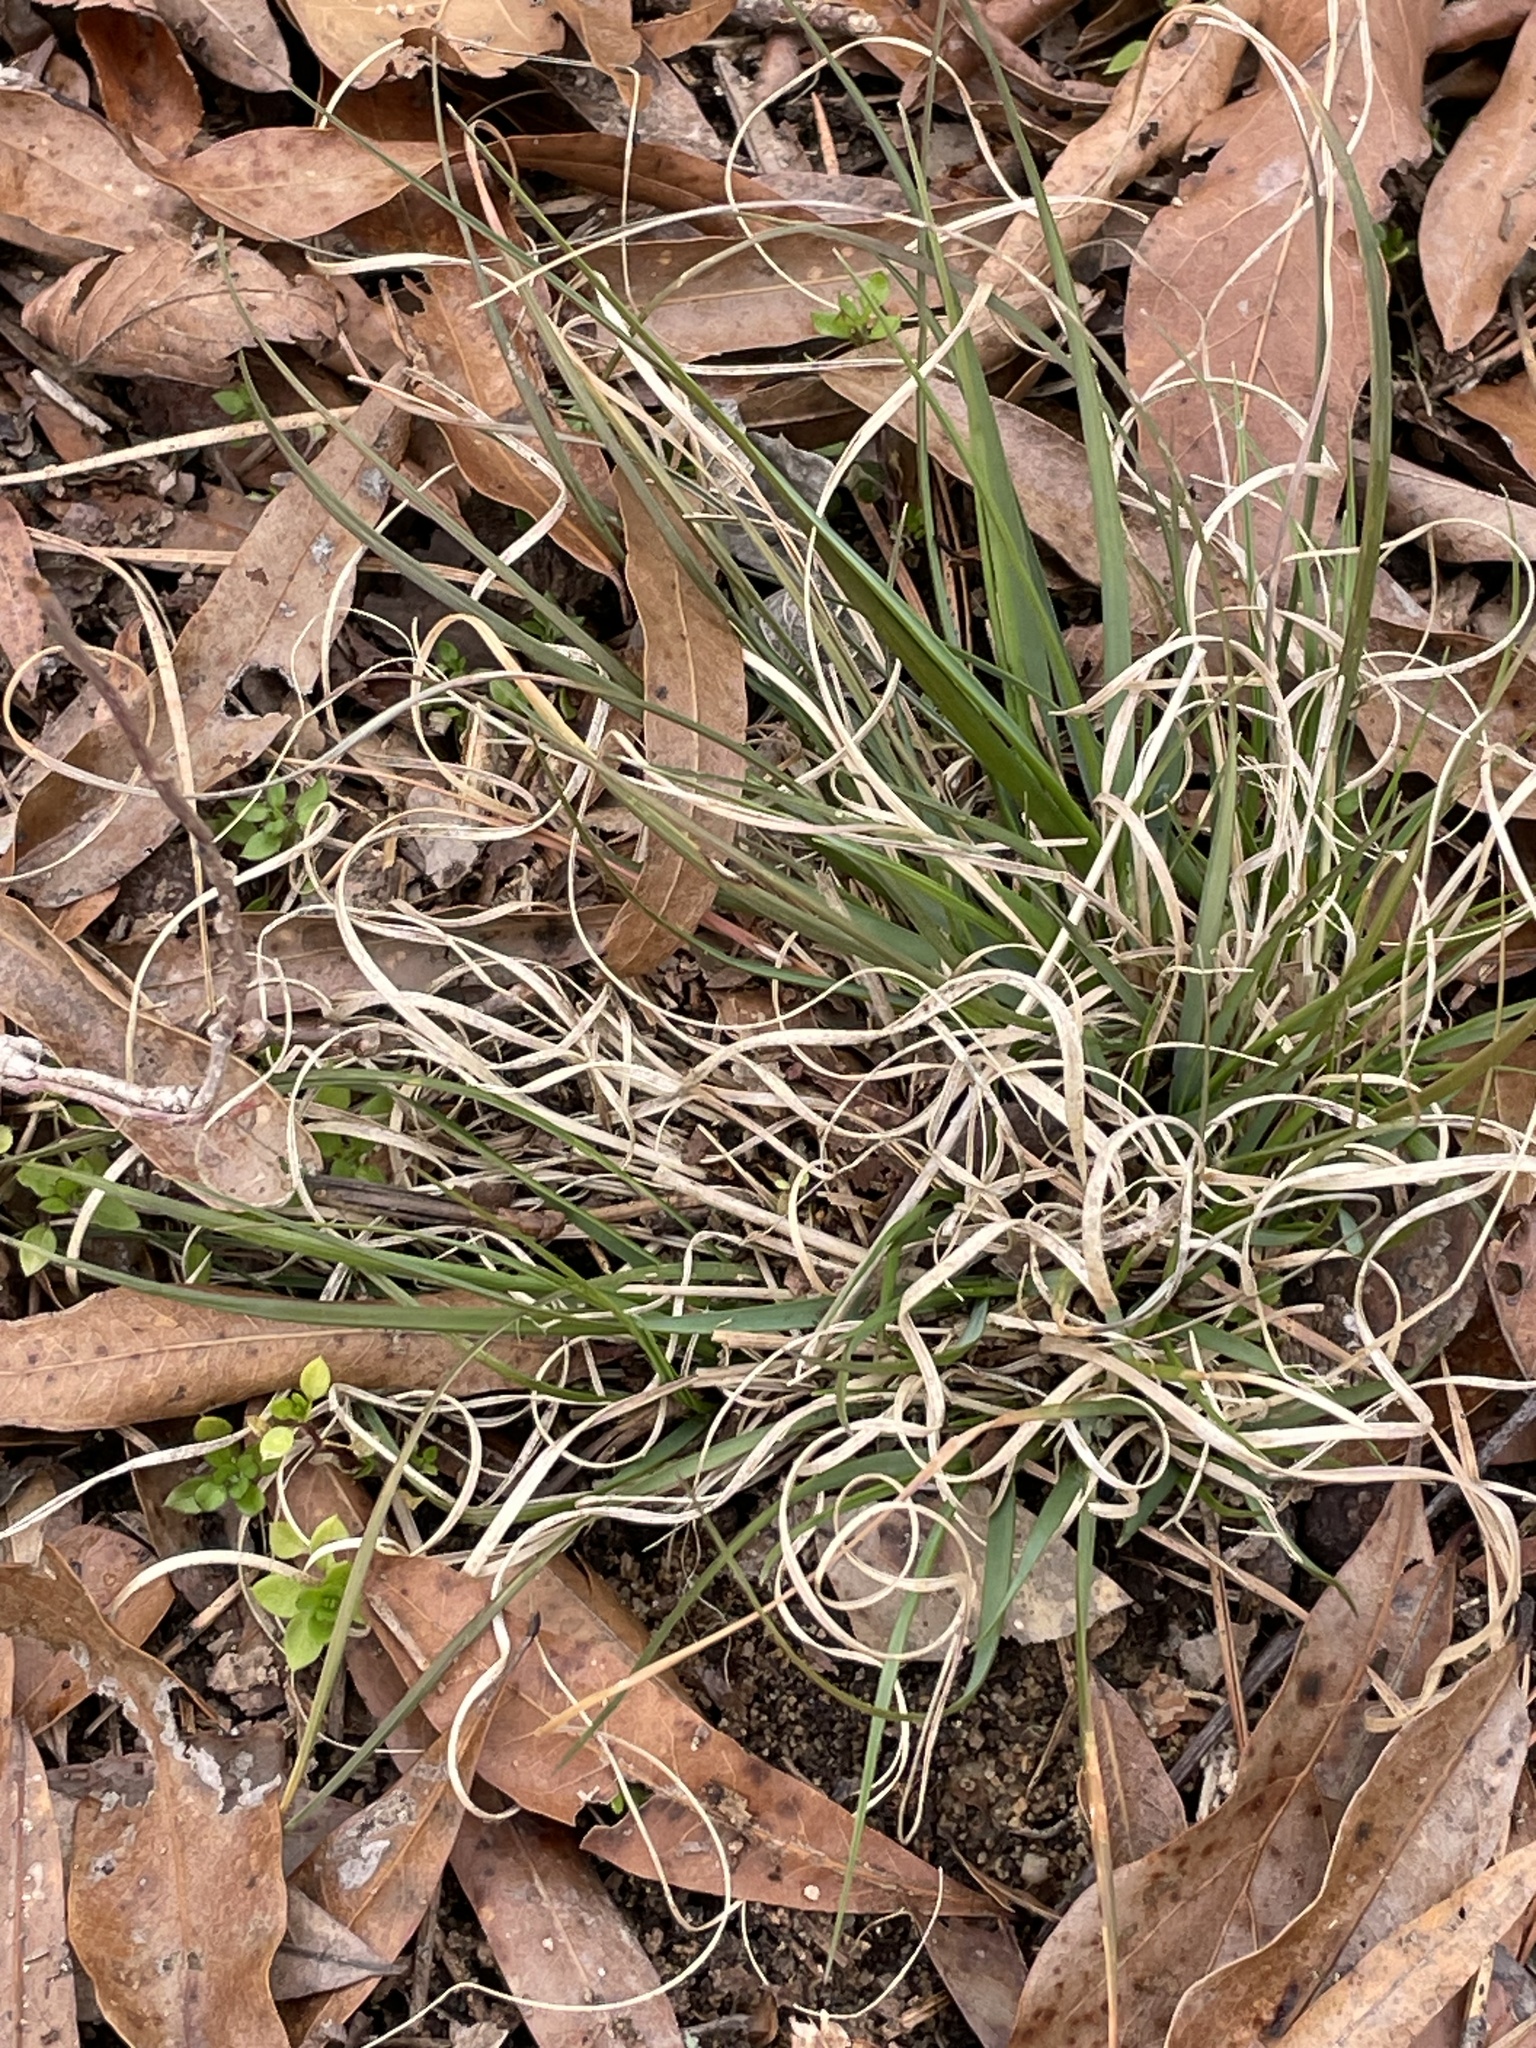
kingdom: Plantae
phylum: Tracheophyta
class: Liliopsida
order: Poales
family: Poaceae
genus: Danthonia
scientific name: Danthonia spicata
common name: Common wild oatgrass
